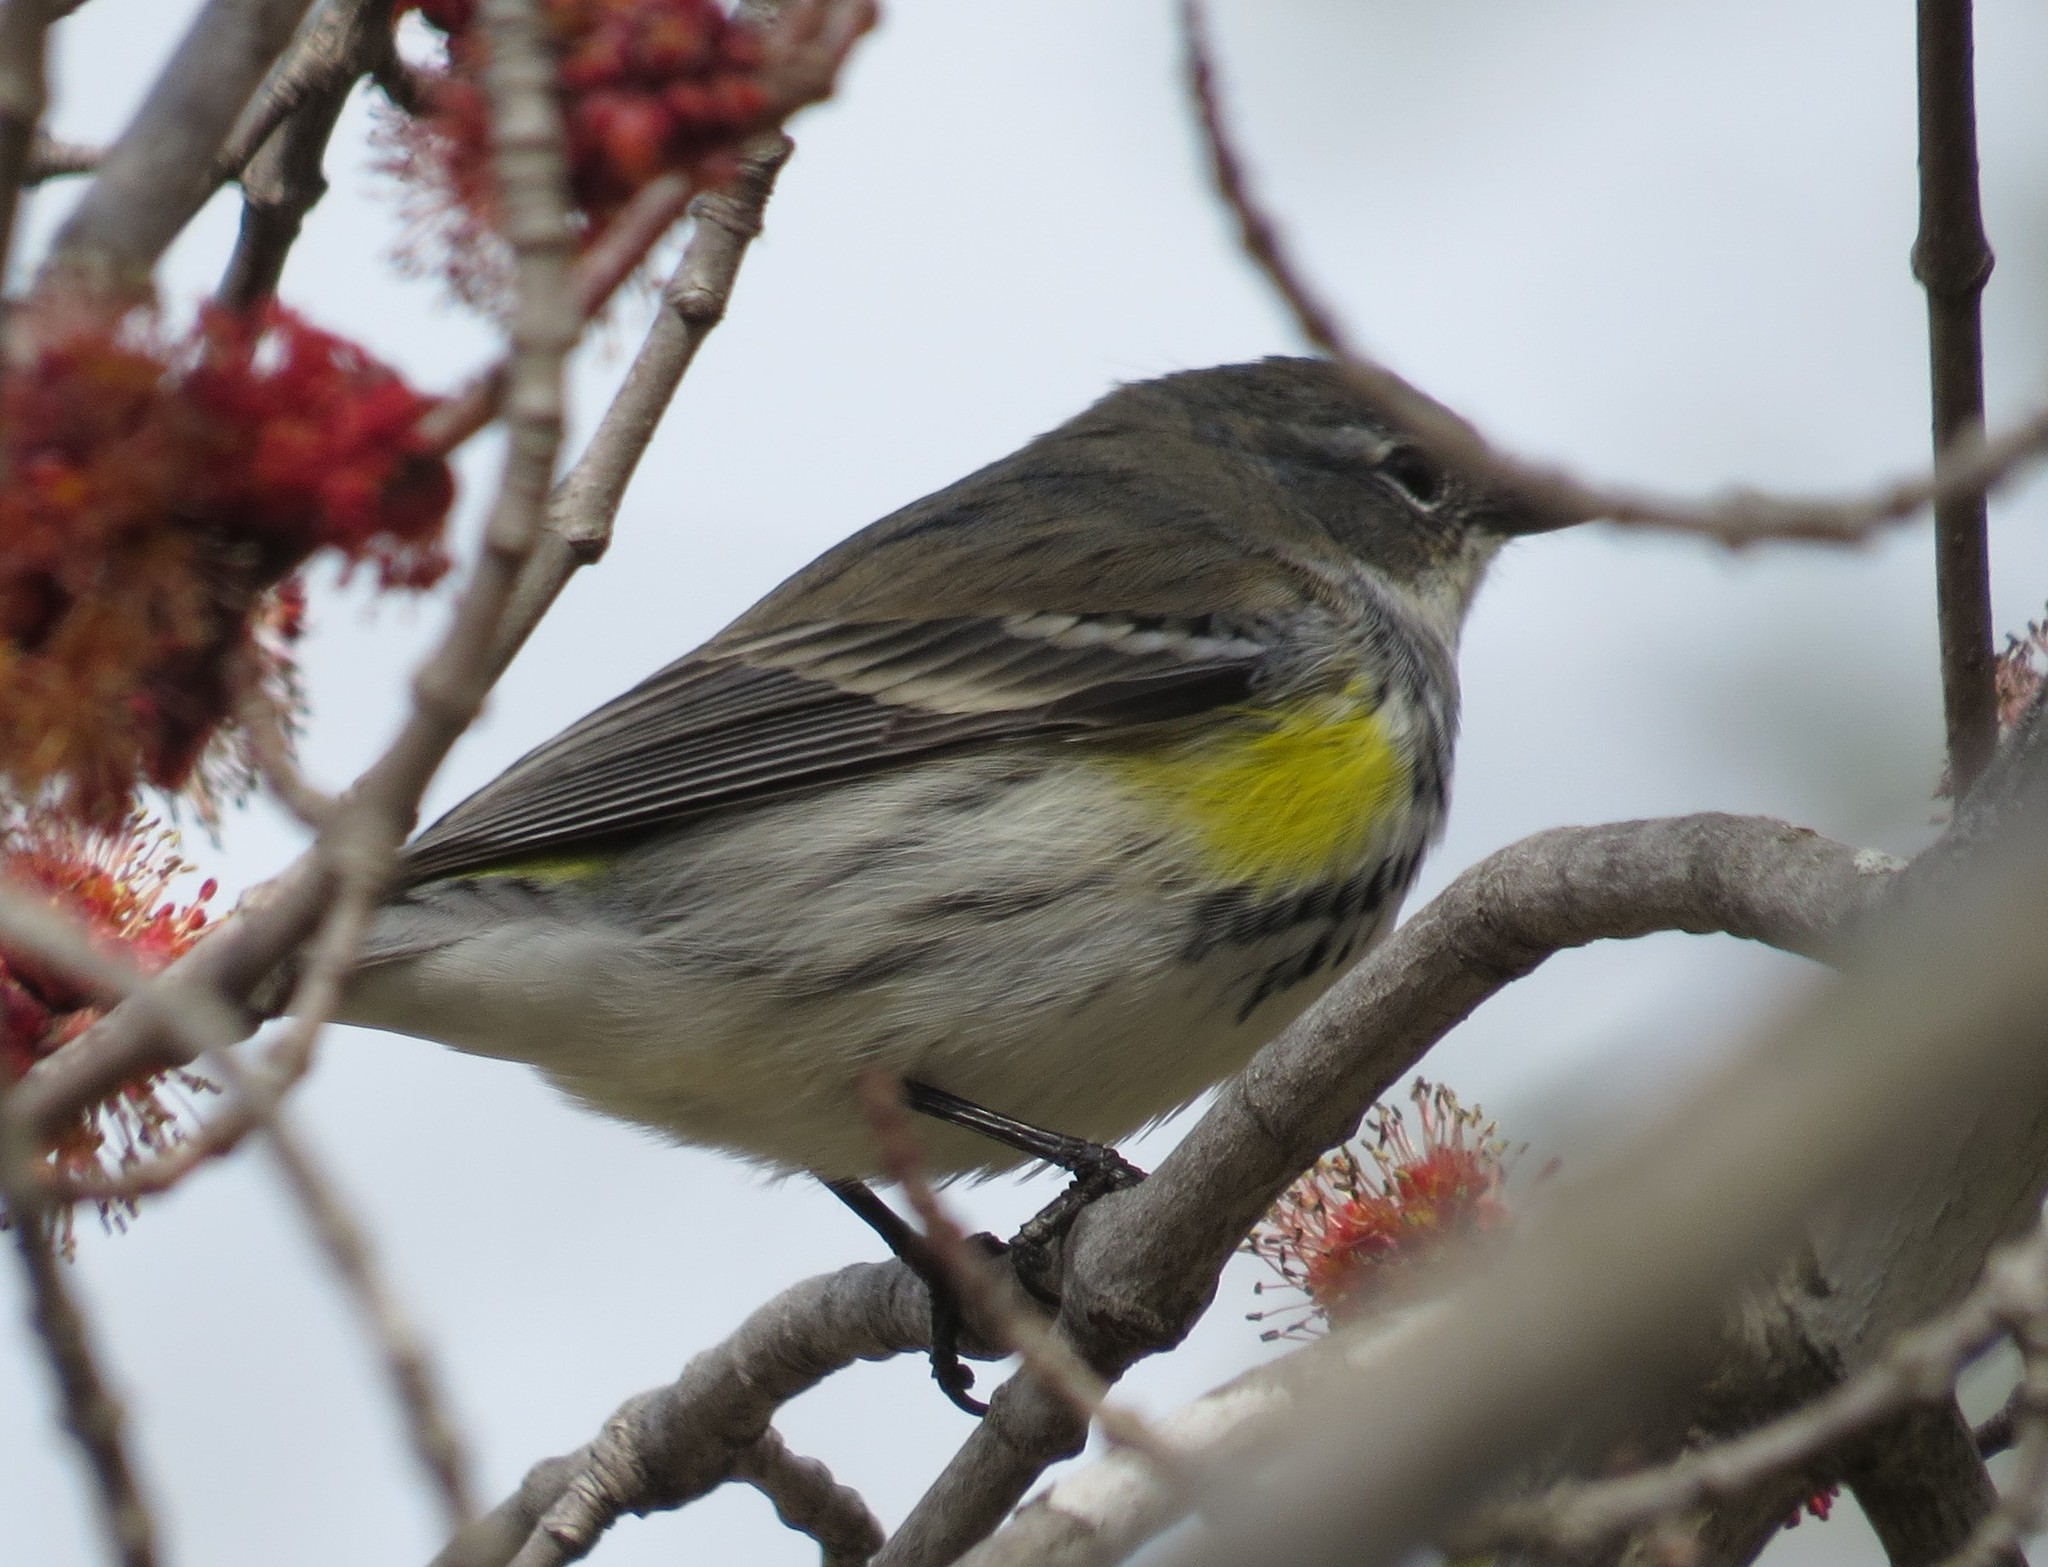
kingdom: Animalia
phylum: Chordata
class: Aves
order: Passeriformes
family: Parulidae
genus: Setophaga
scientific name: Setophaga coronata
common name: Myrtle warbler
